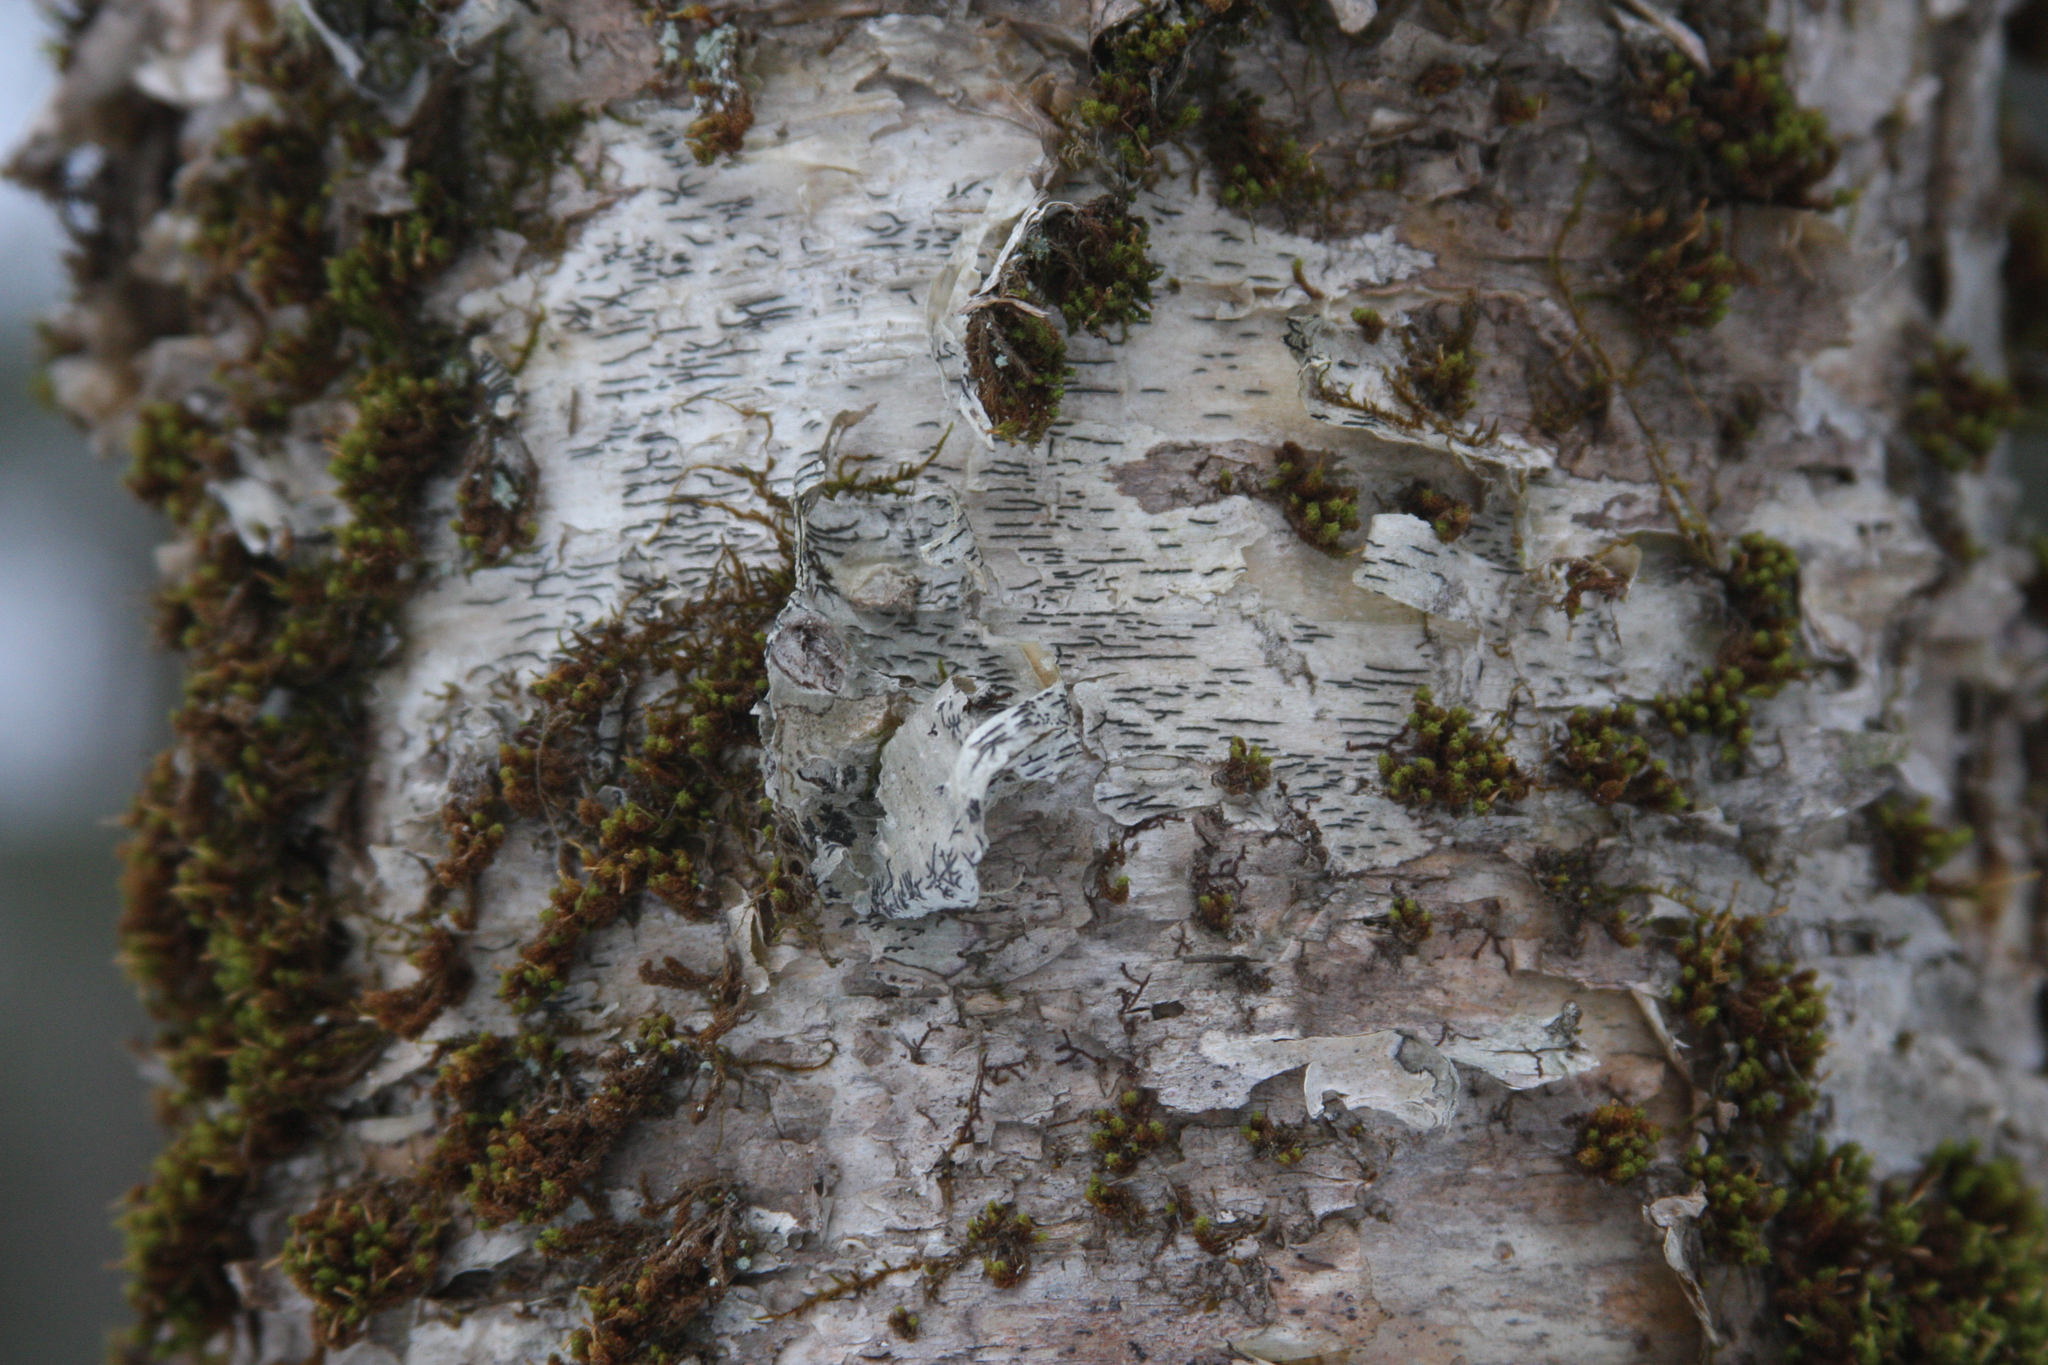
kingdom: Plantae
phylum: Bryophyta
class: Bryopsida
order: Orthotrichales
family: Orthotrichaceae
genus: Ulota
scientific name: Ulota crispa
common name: Crisped pincushion moss
